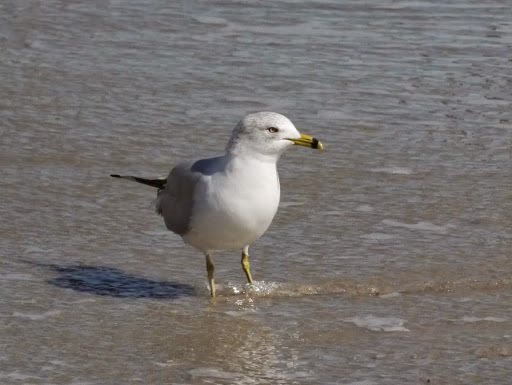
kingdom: Animalia
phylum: Chordata
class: Aves
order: Charadriiformes
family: Laridae
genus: Larus
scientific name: Larus delawarensis
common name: Ring-billed gull
